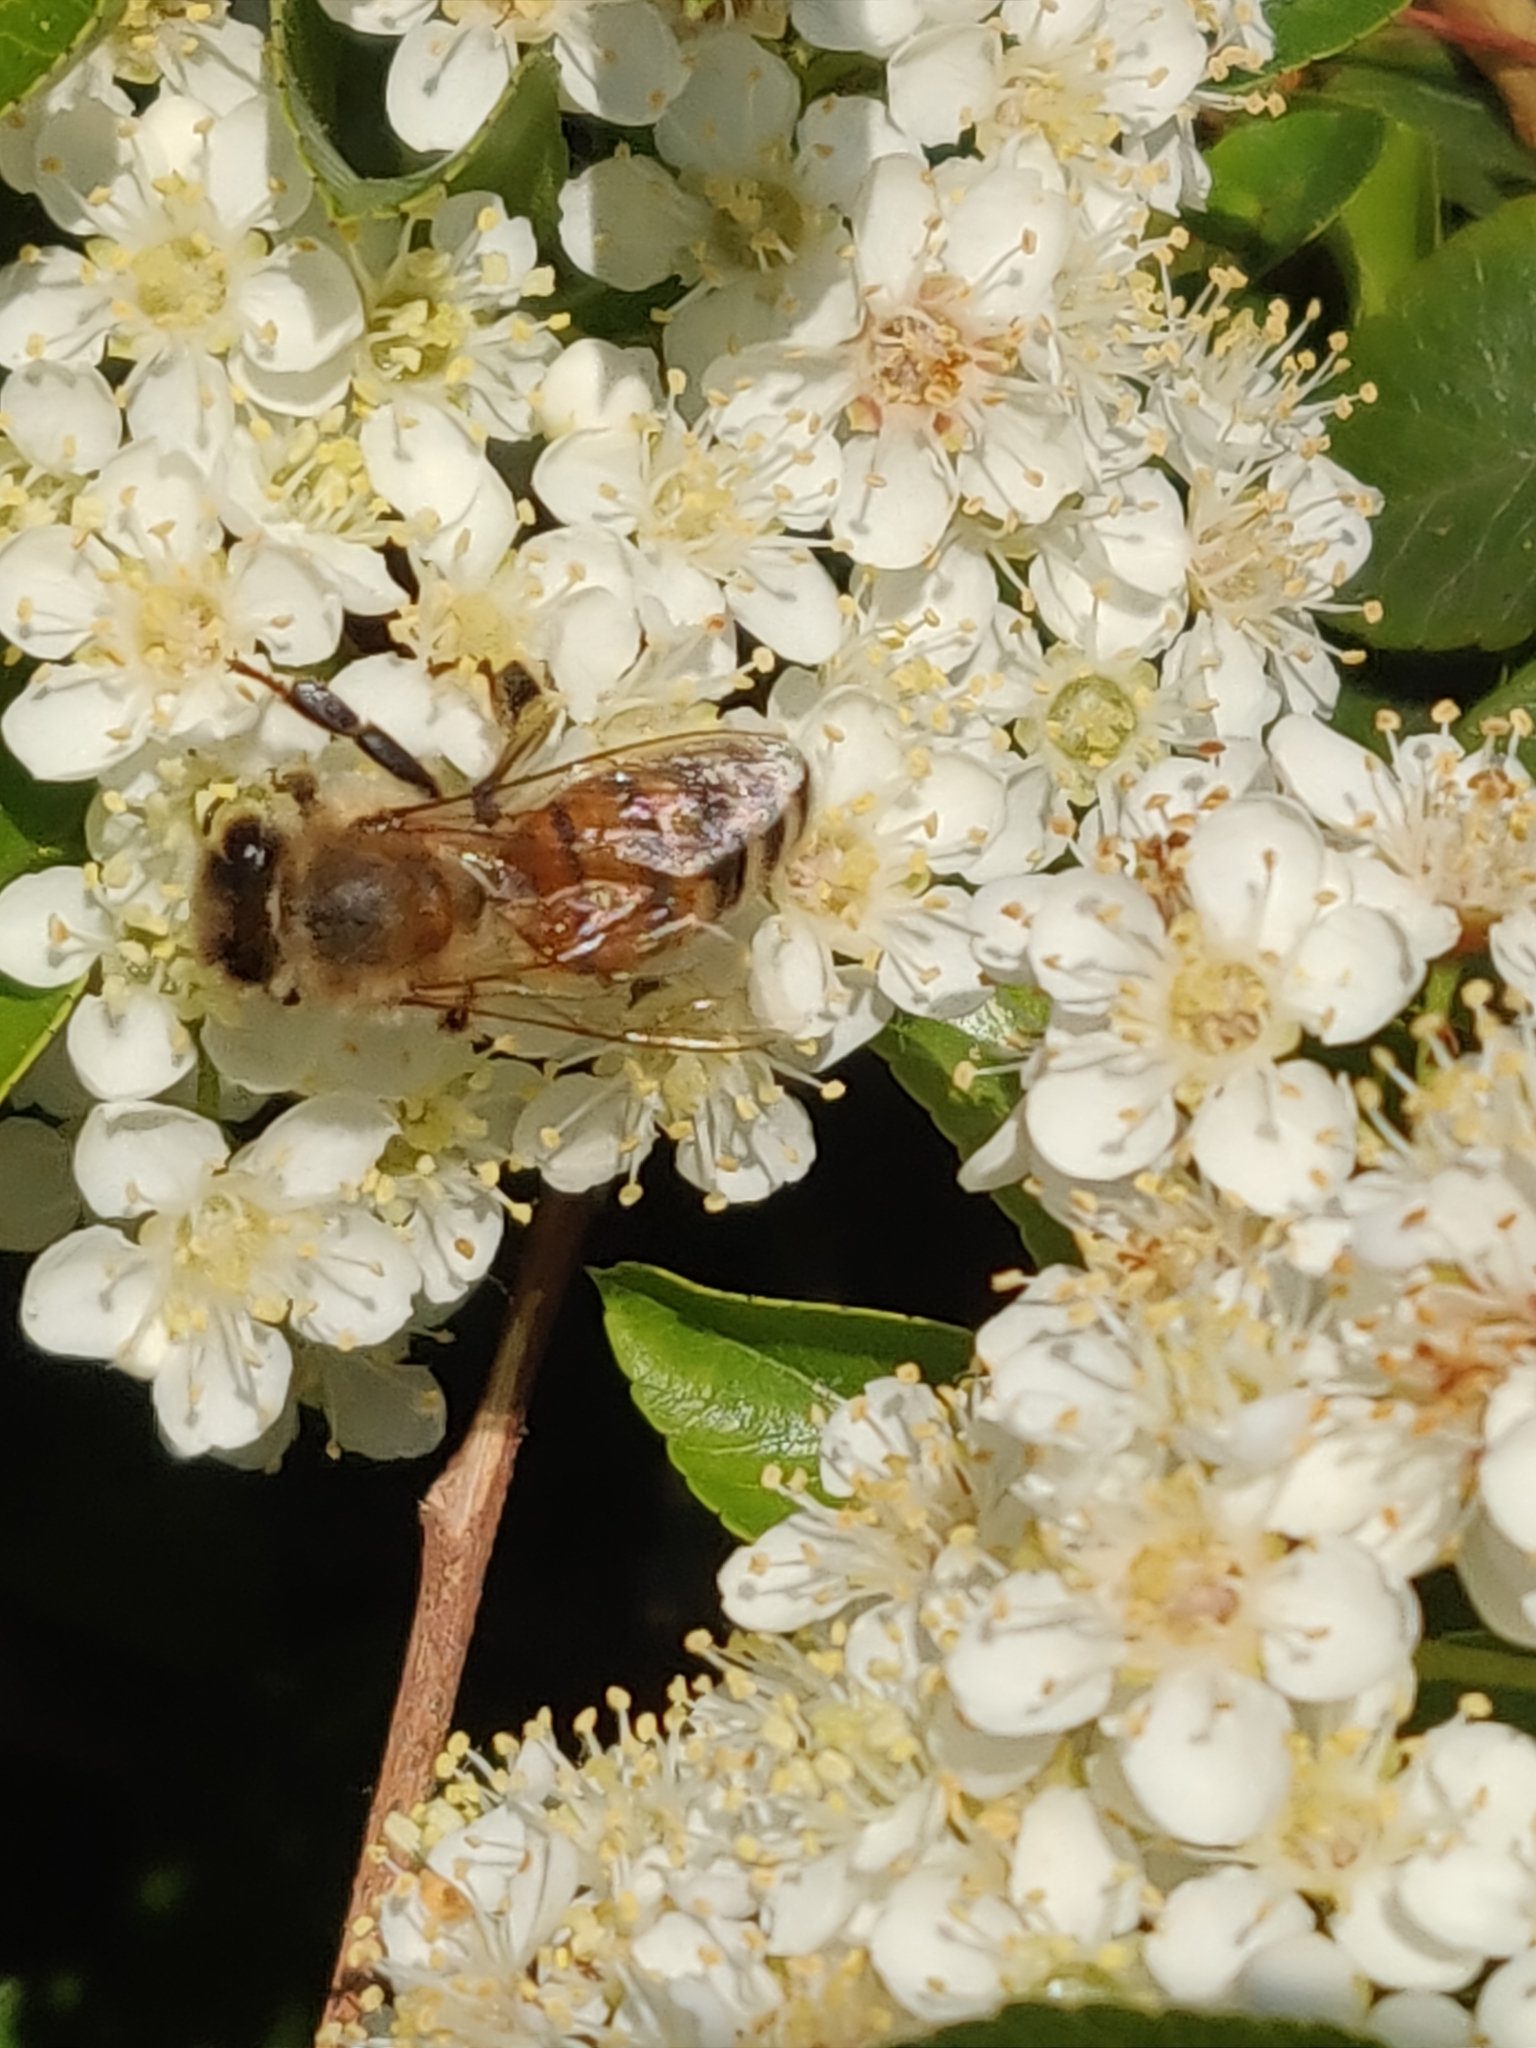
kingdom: Animalia
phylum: Arthropoda
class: Insecta
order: Hymenoptera
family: Apidae
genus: Apis
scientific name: Apis mellifera
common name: Honey bee
